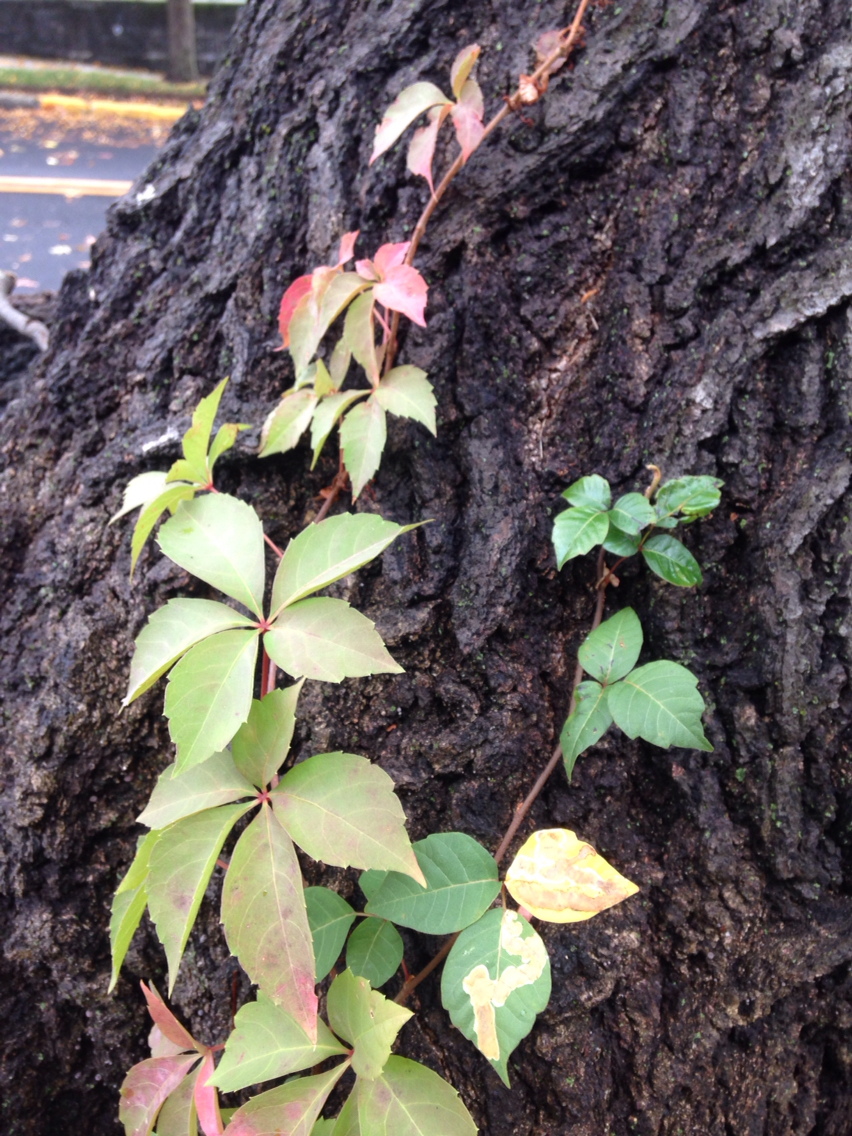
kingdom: Plantae
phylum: Tracheophyta
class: Magnoliopsida
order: Vitales
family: Vitaceae
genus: Parthenocissus
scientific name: Parthenocissus quinquefolia
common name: Virginia-creeper
